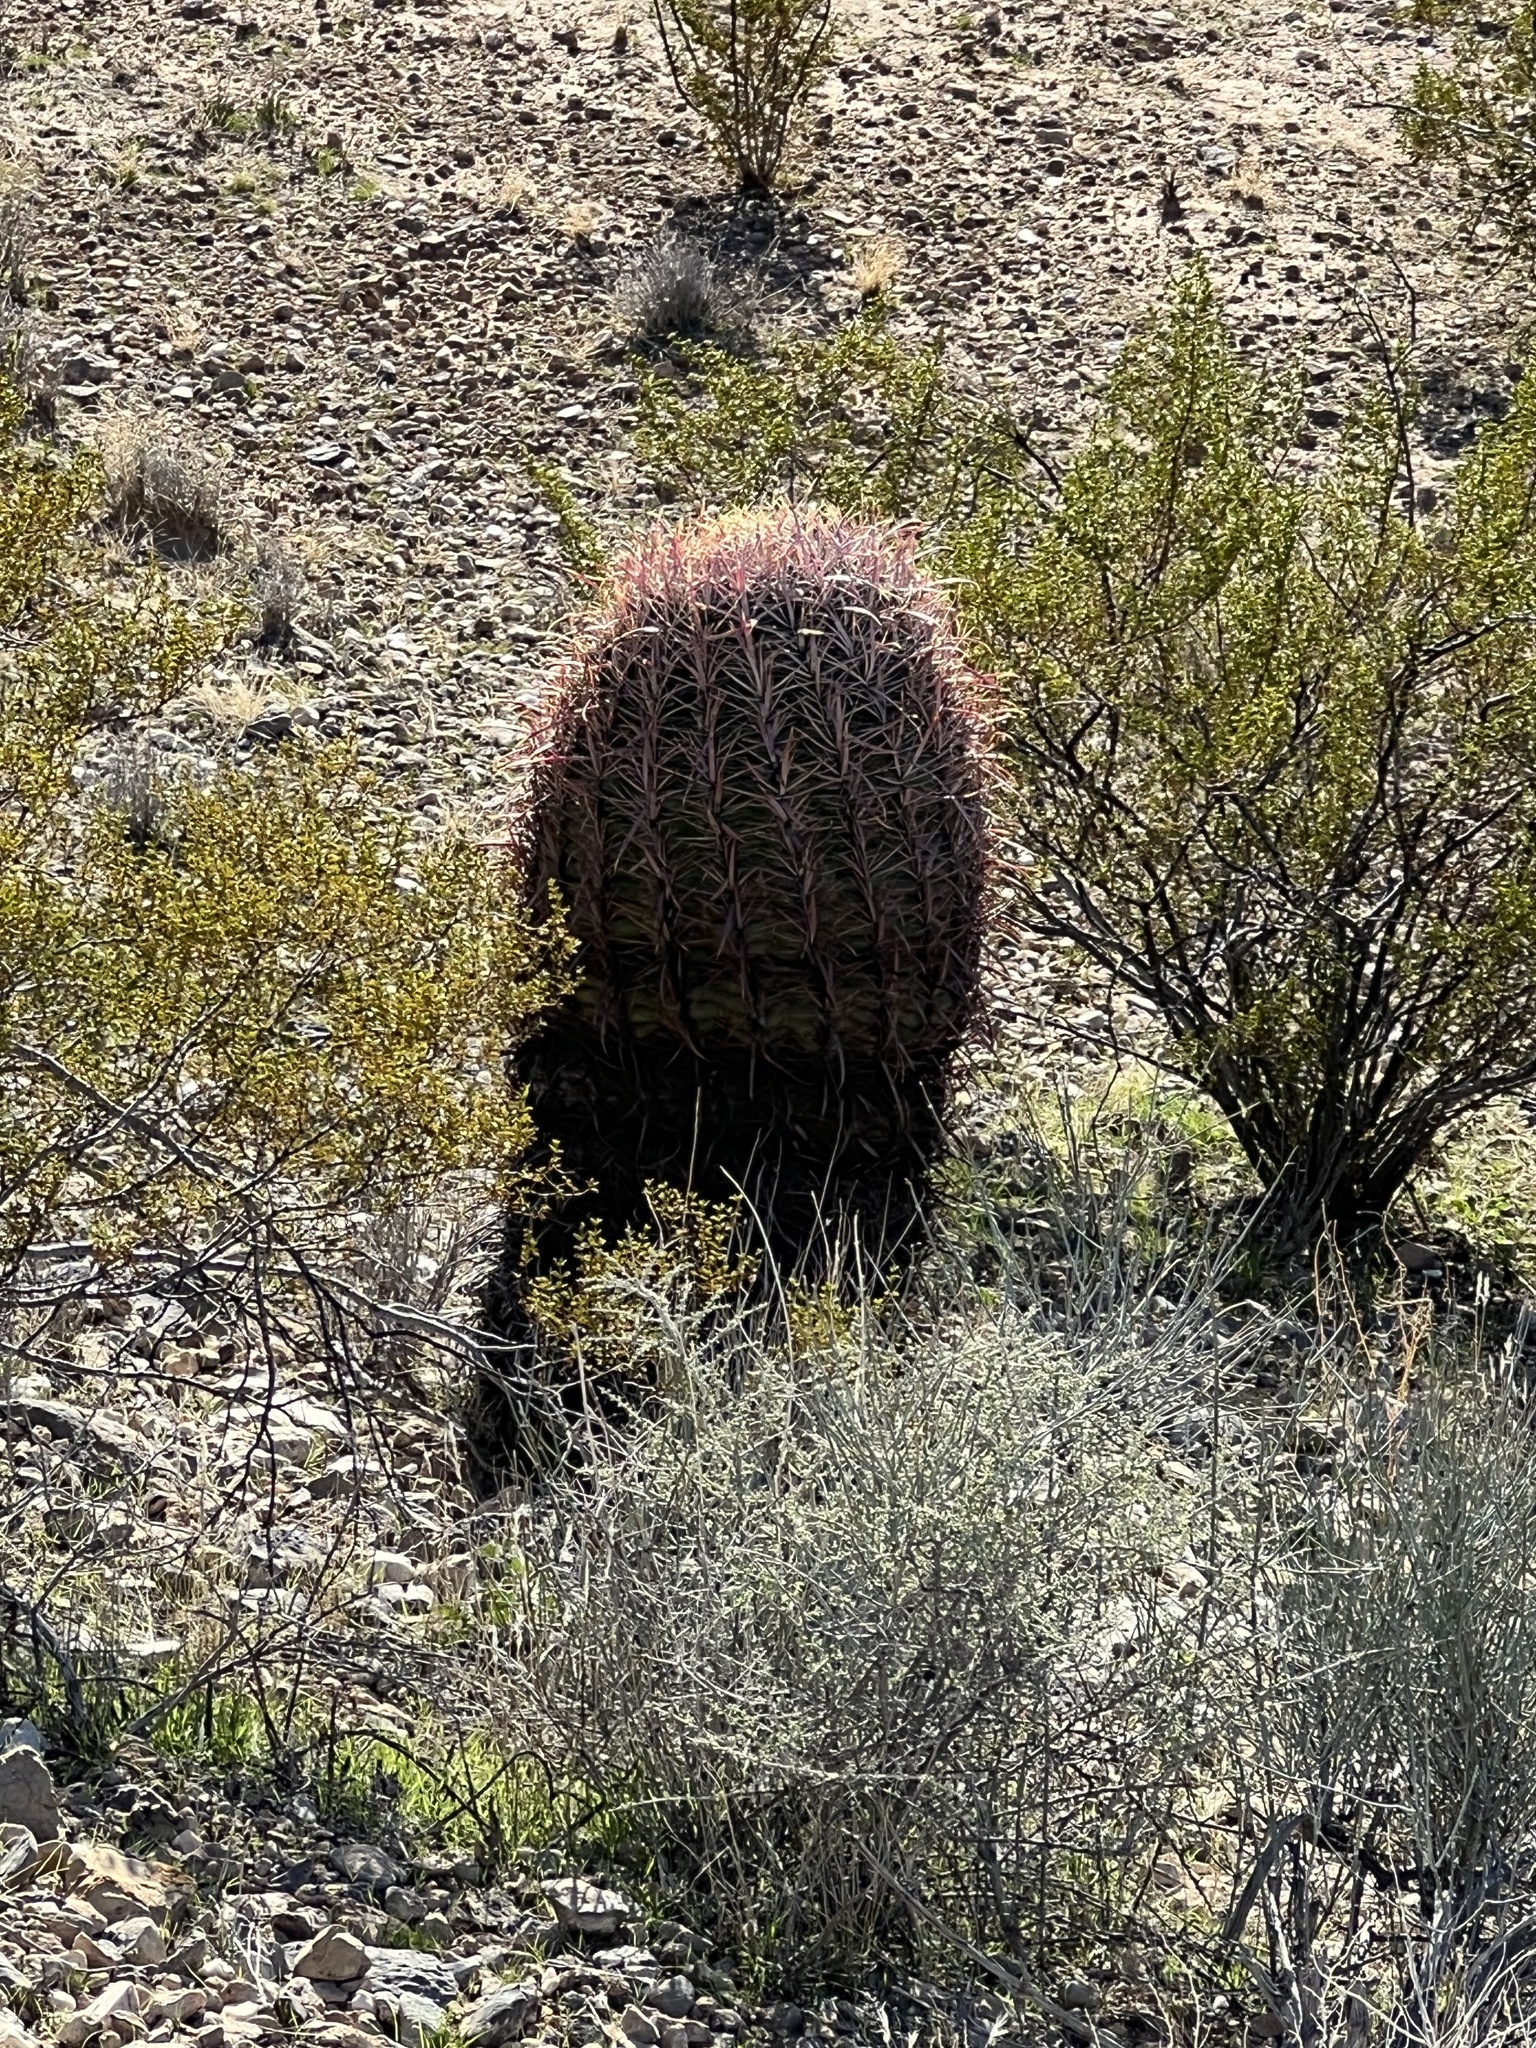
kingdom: Plantae
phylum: Tracheophyta
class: Magnoliopsida
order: Caryophyllales
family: Cactaceae
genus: Ferocactus
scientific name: Ferocactus cylindraceus
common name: California barrel cactus
